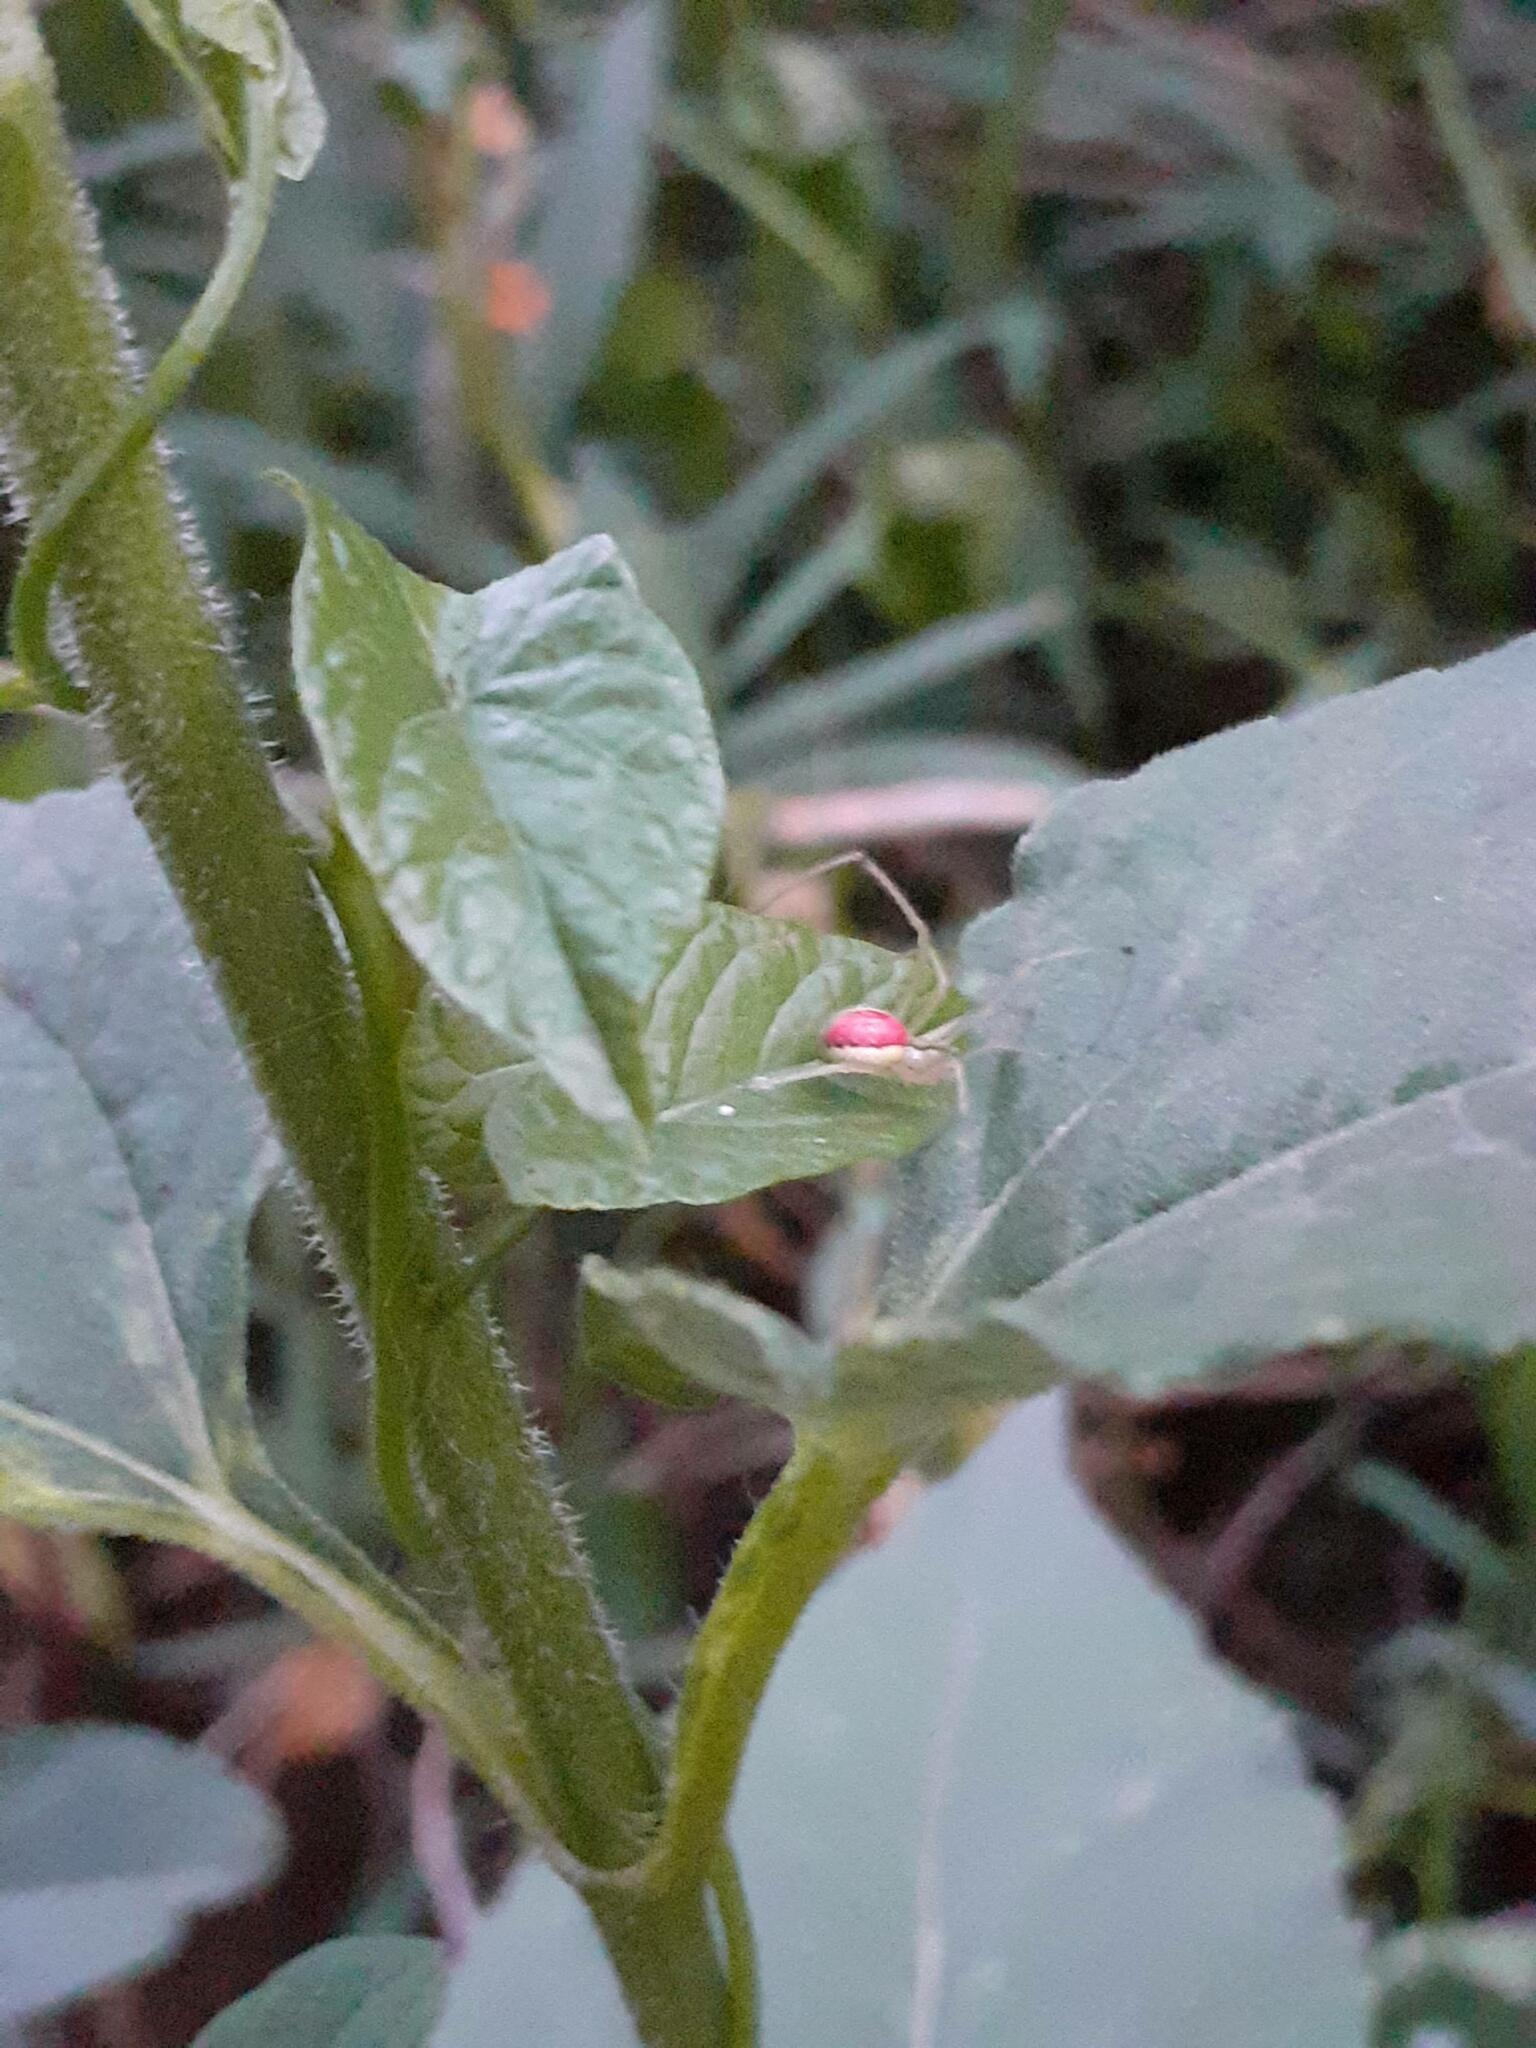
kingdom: Animalia
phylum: Arthropoda
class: Arachnida
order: Araneae
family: Theridiidae
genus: Enoplognatha
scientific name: Enoplognatha ovata
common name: Common candy-striped spider
